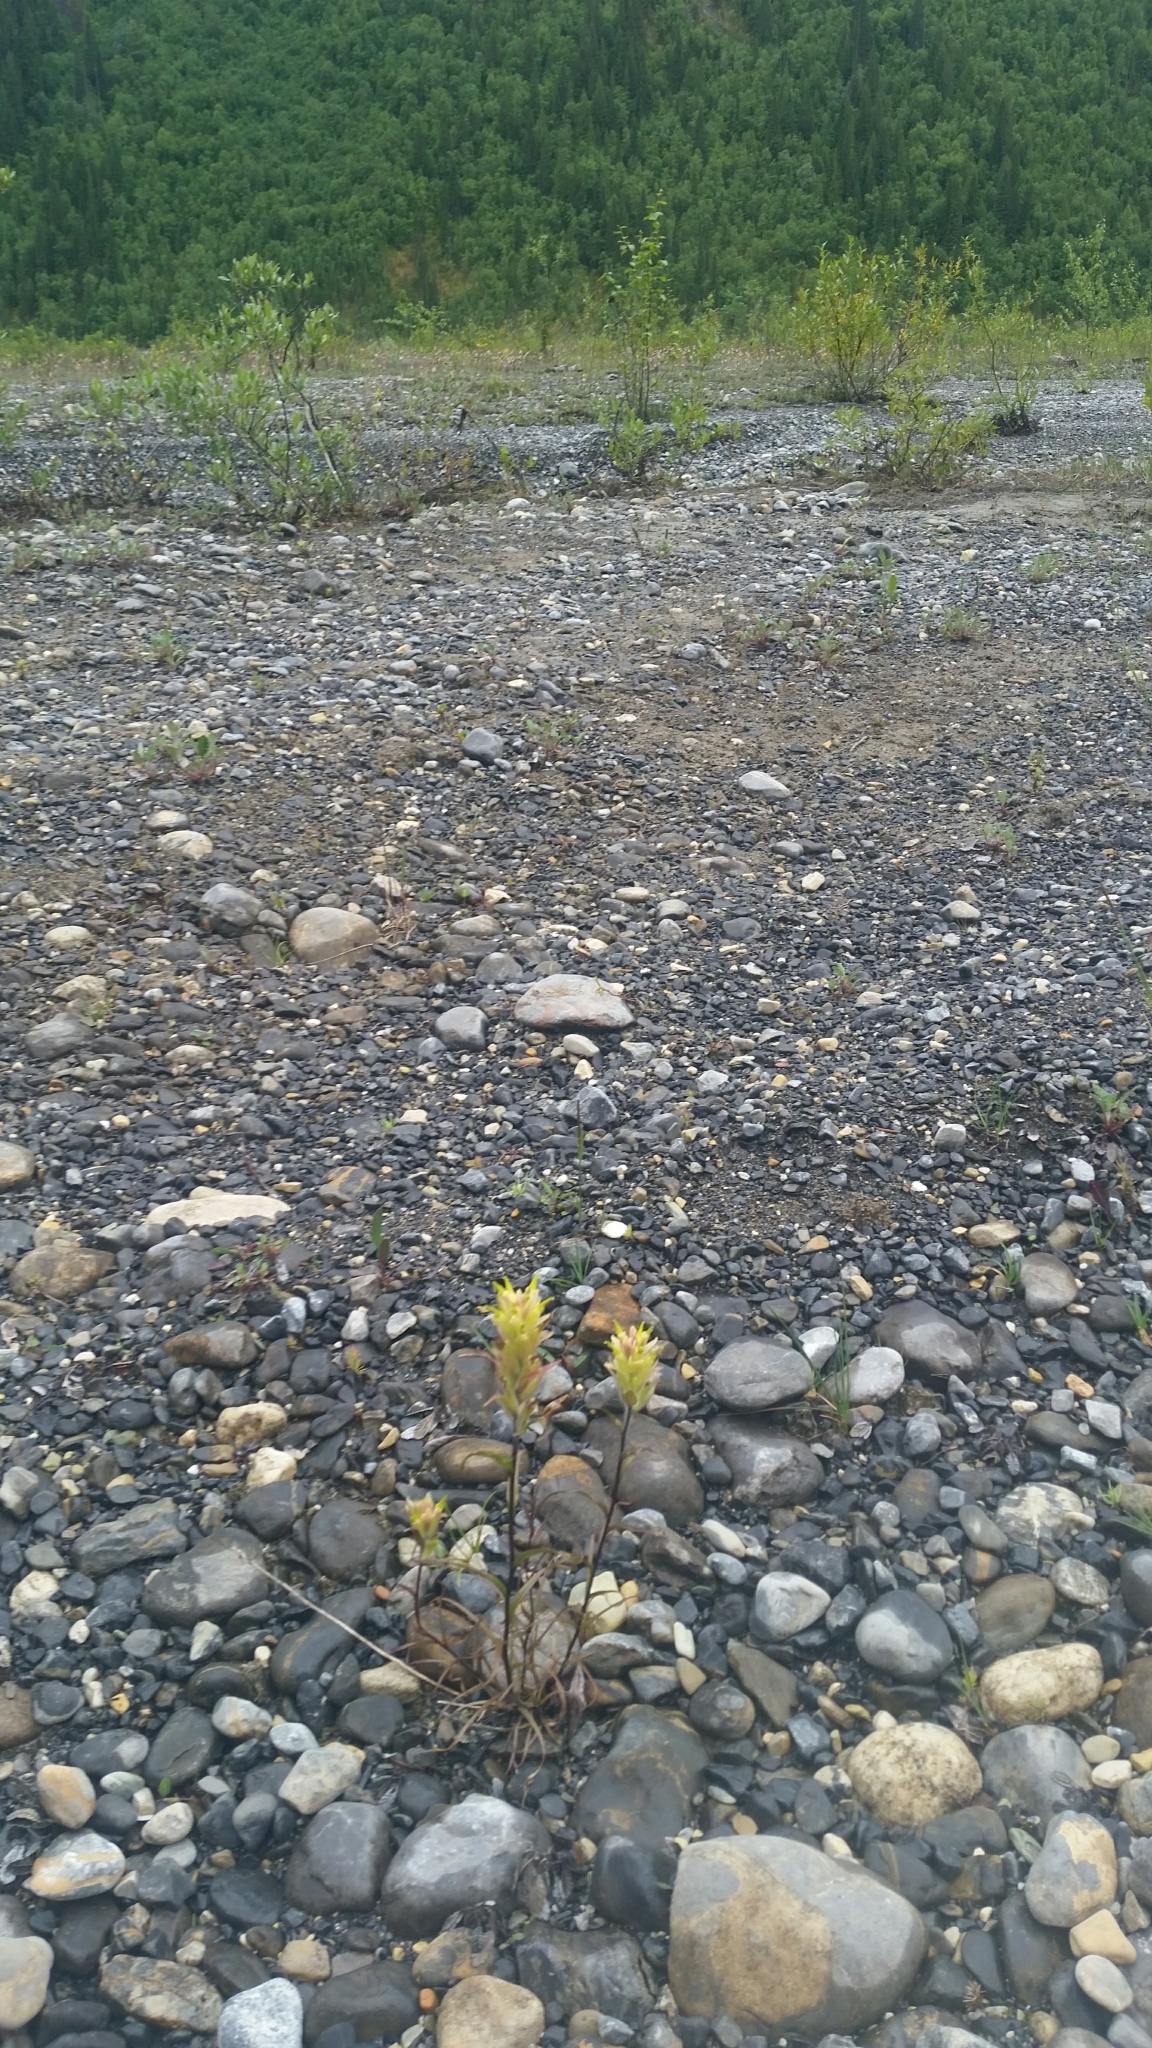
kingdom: Plantae
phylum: Tracheophyta
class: Magnoliopsida
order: Lamiales
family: Orobanchaceae
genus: Castilleja
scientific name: Castilleja septentrionalis
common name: Northeastern paintbrush
